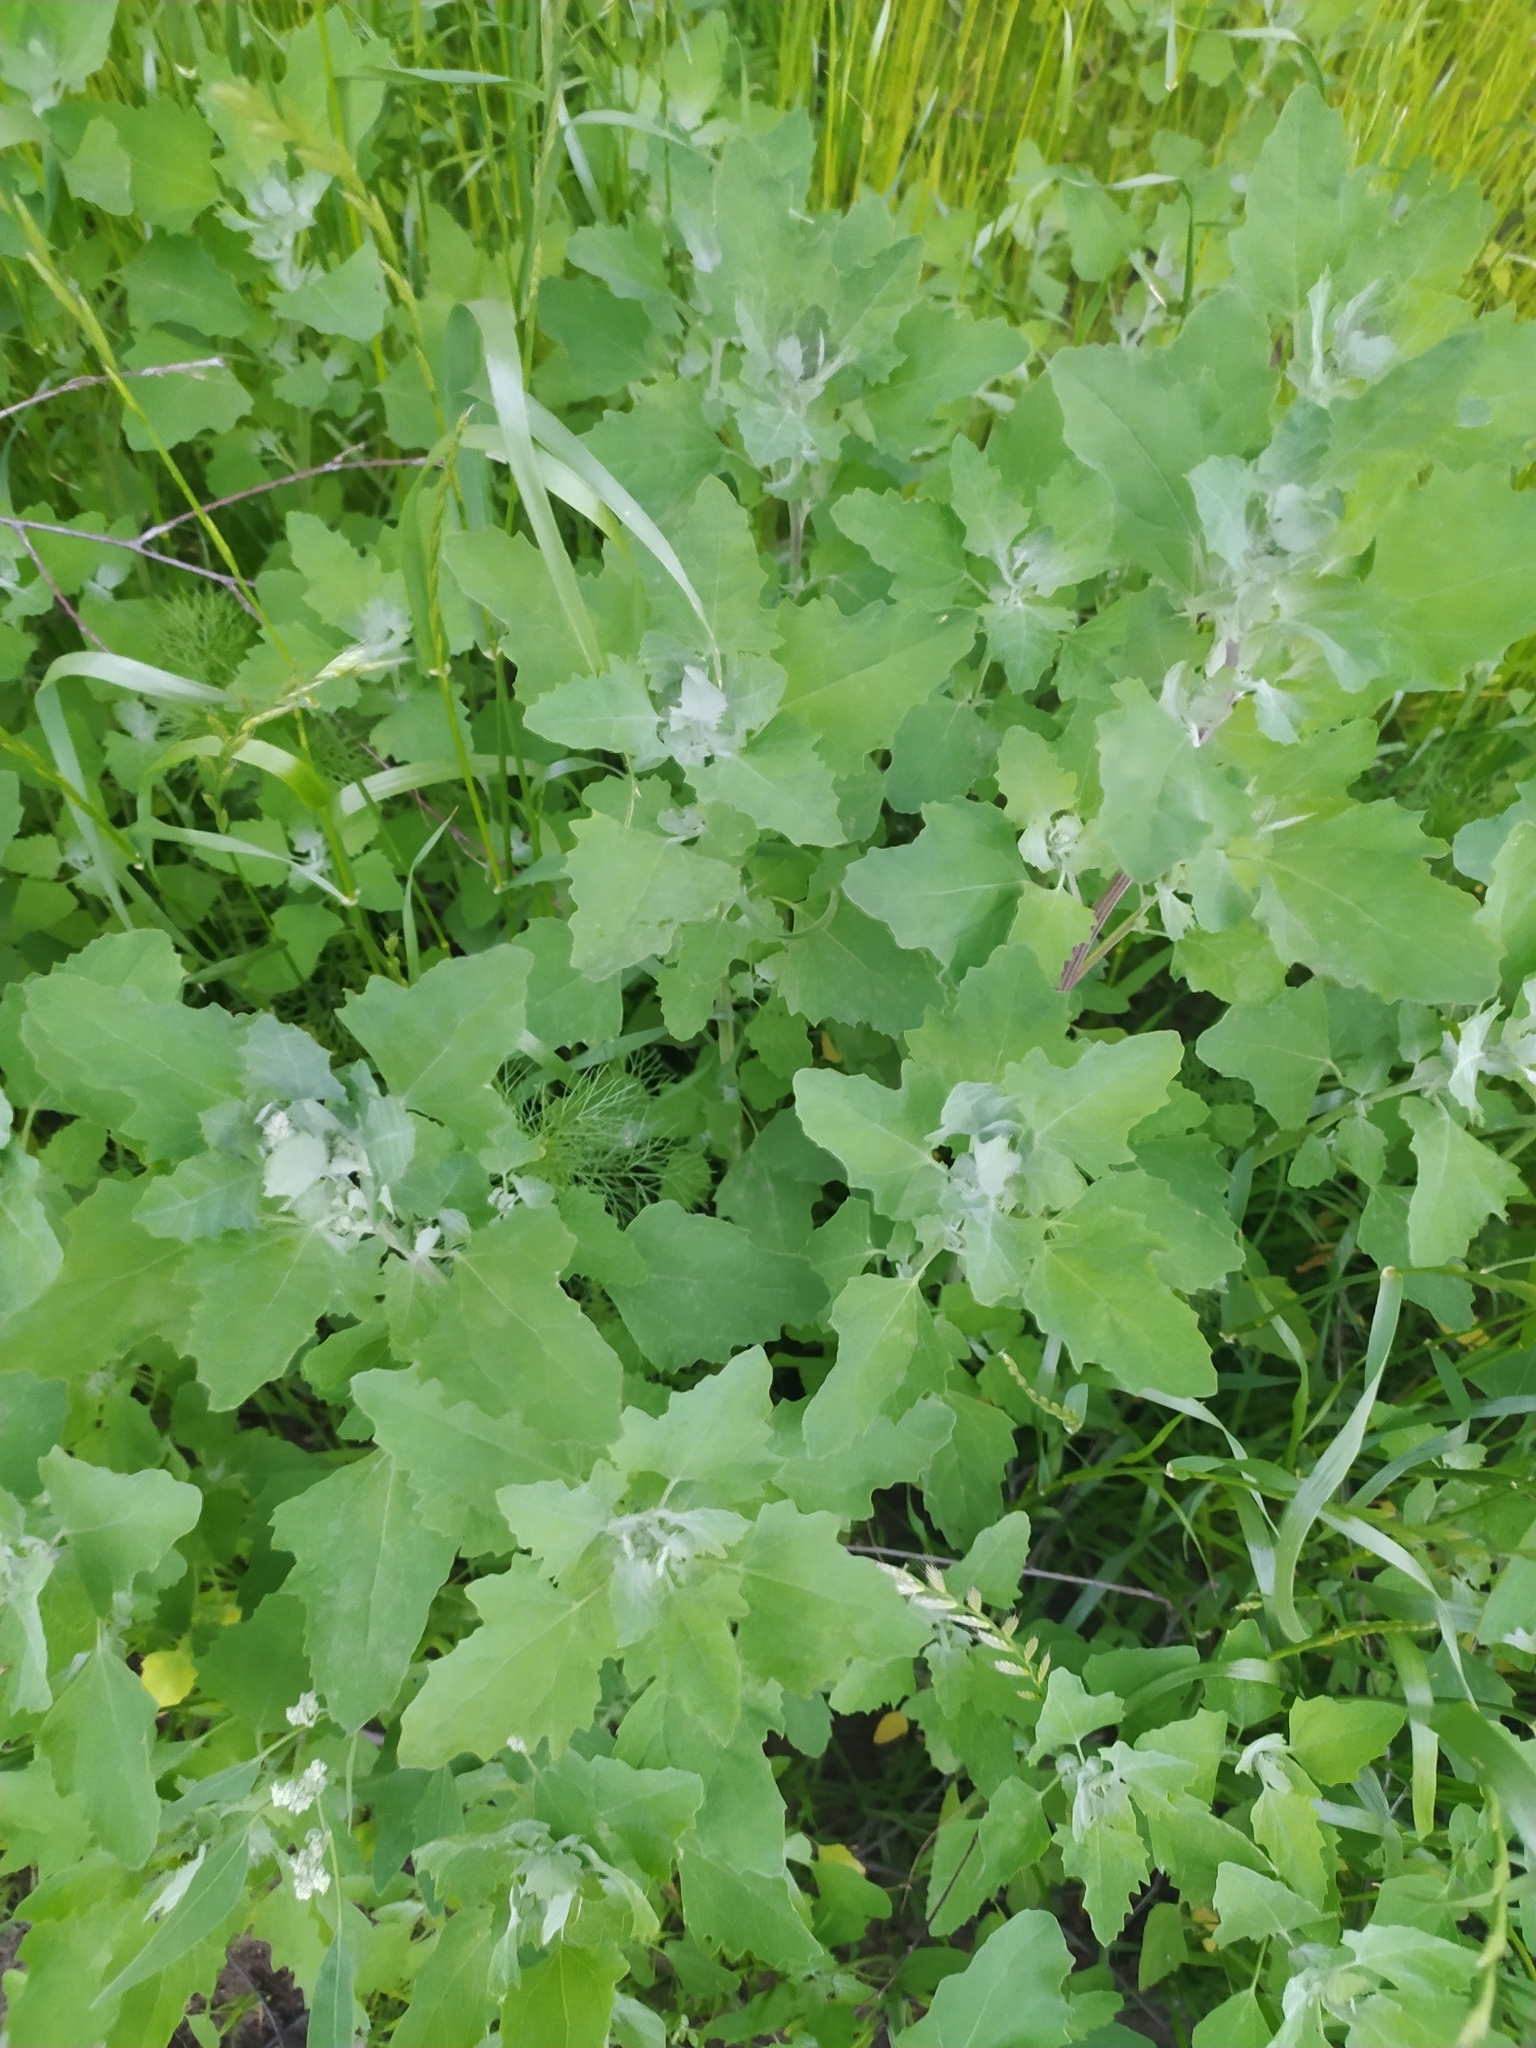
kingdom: Plantae
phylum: Tracheophyta
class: Magnoliopsida
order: Caryophyllales
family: Amaranthaceae
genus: Chenopodium
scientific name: Chenopodium album
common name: Fat-hen
